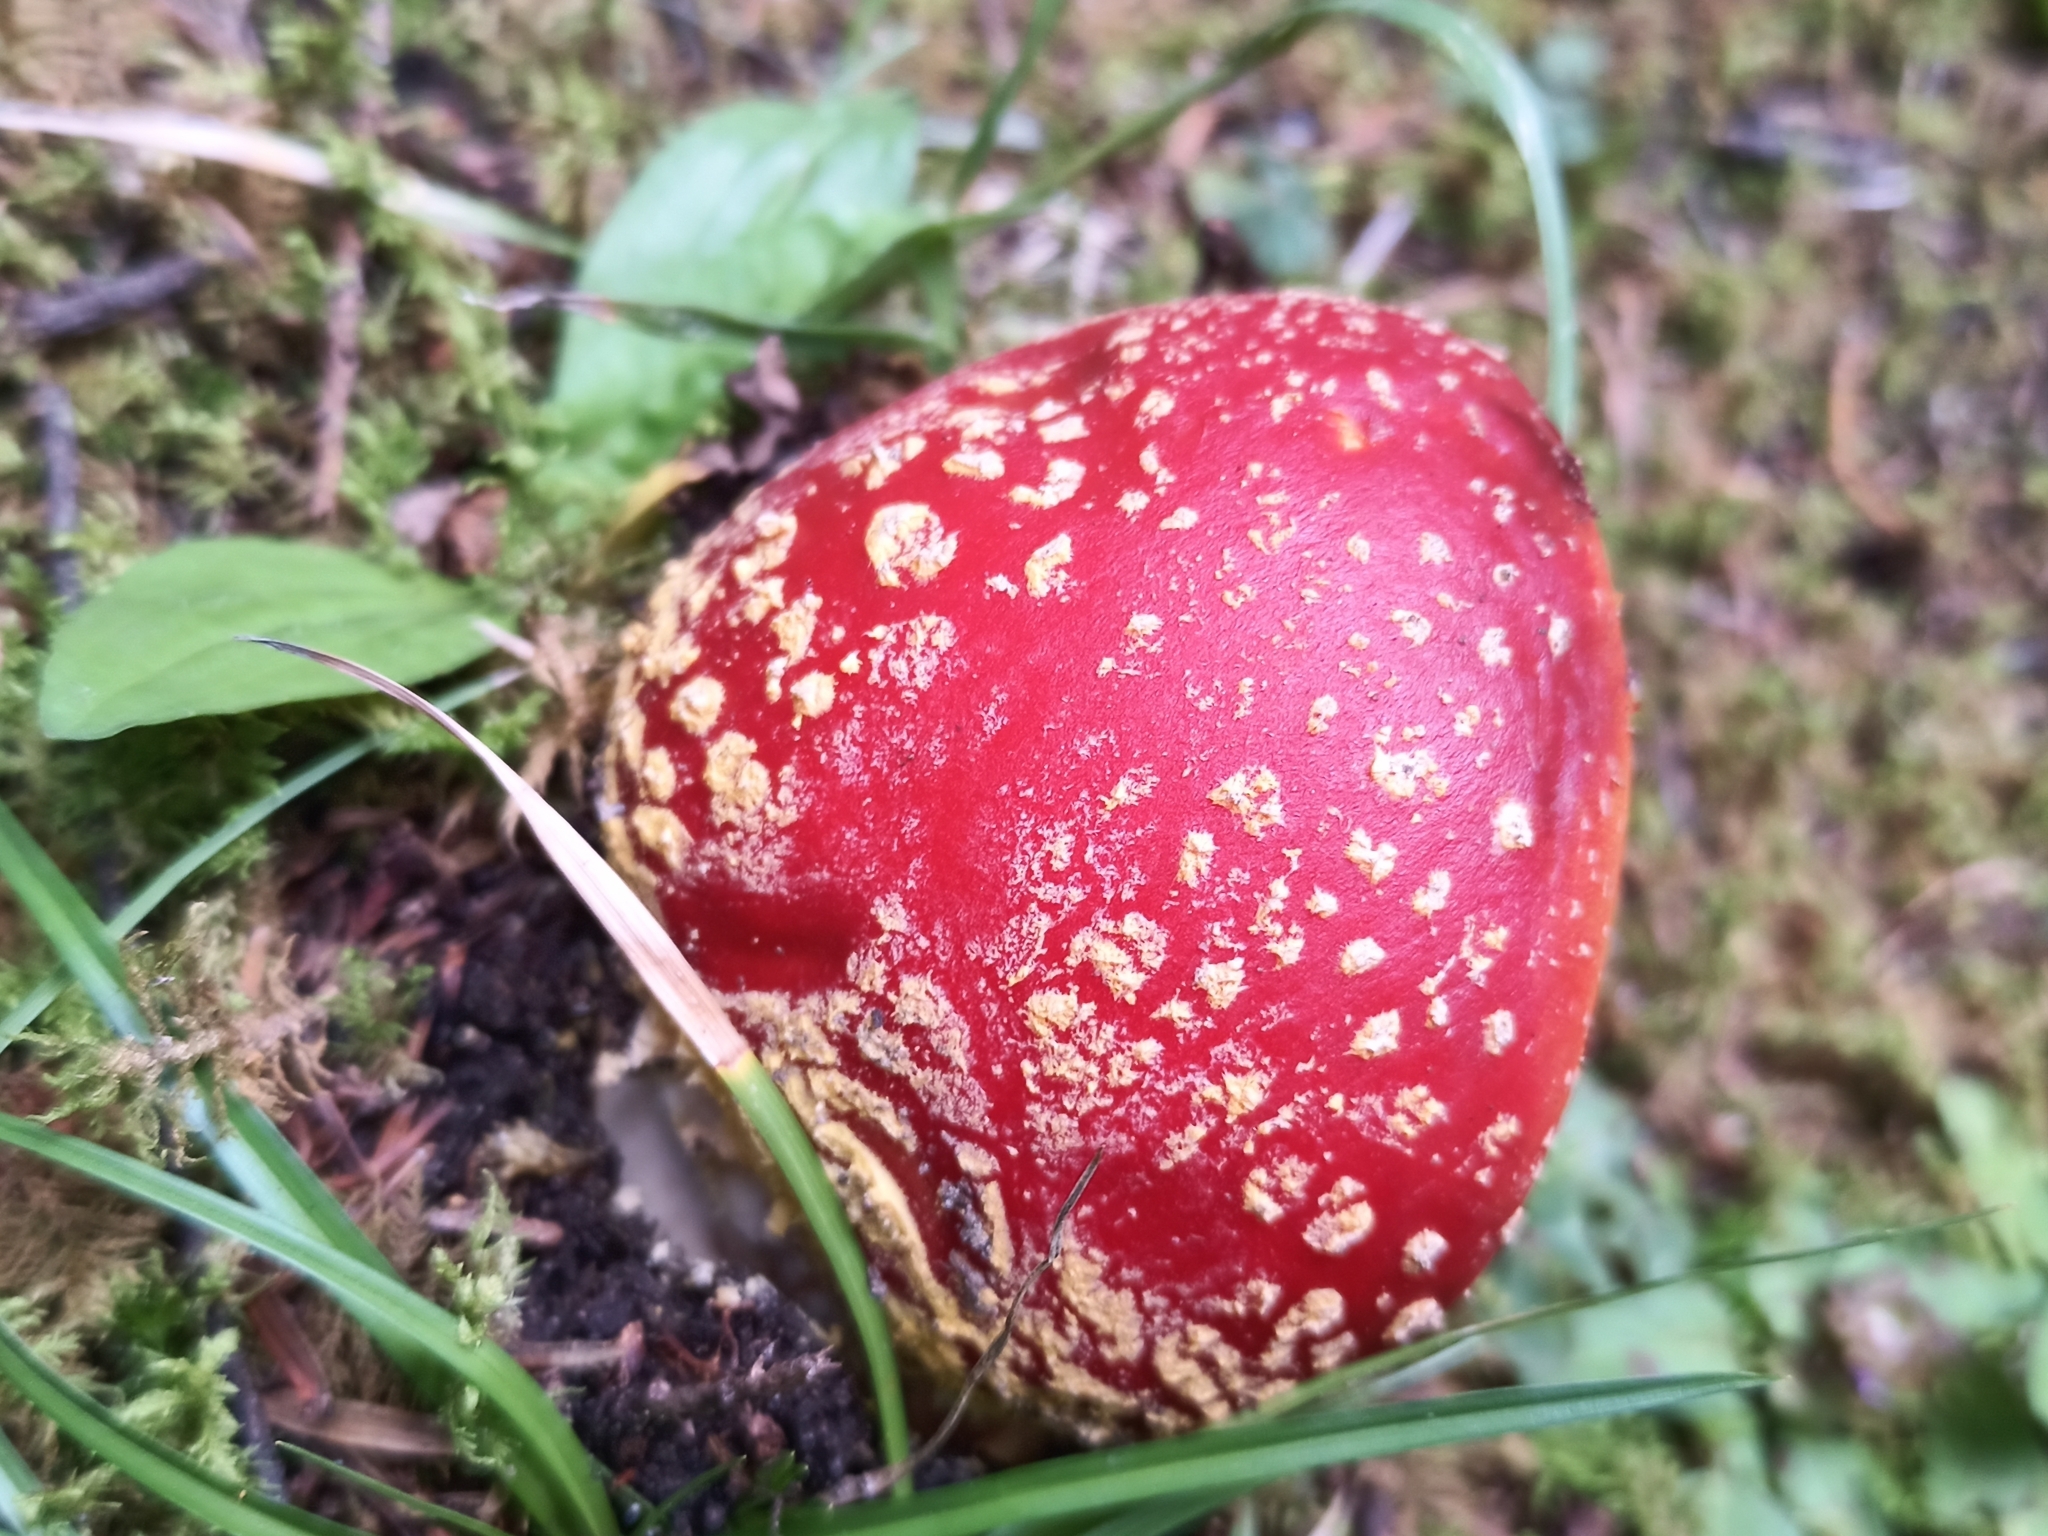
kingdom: Fungi
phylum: Basidiomycota
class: Agaricomycetes
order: Agaricales
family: Amanitaceae
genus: Amanita
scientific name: Amanita muscaria
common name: Fly agaric
